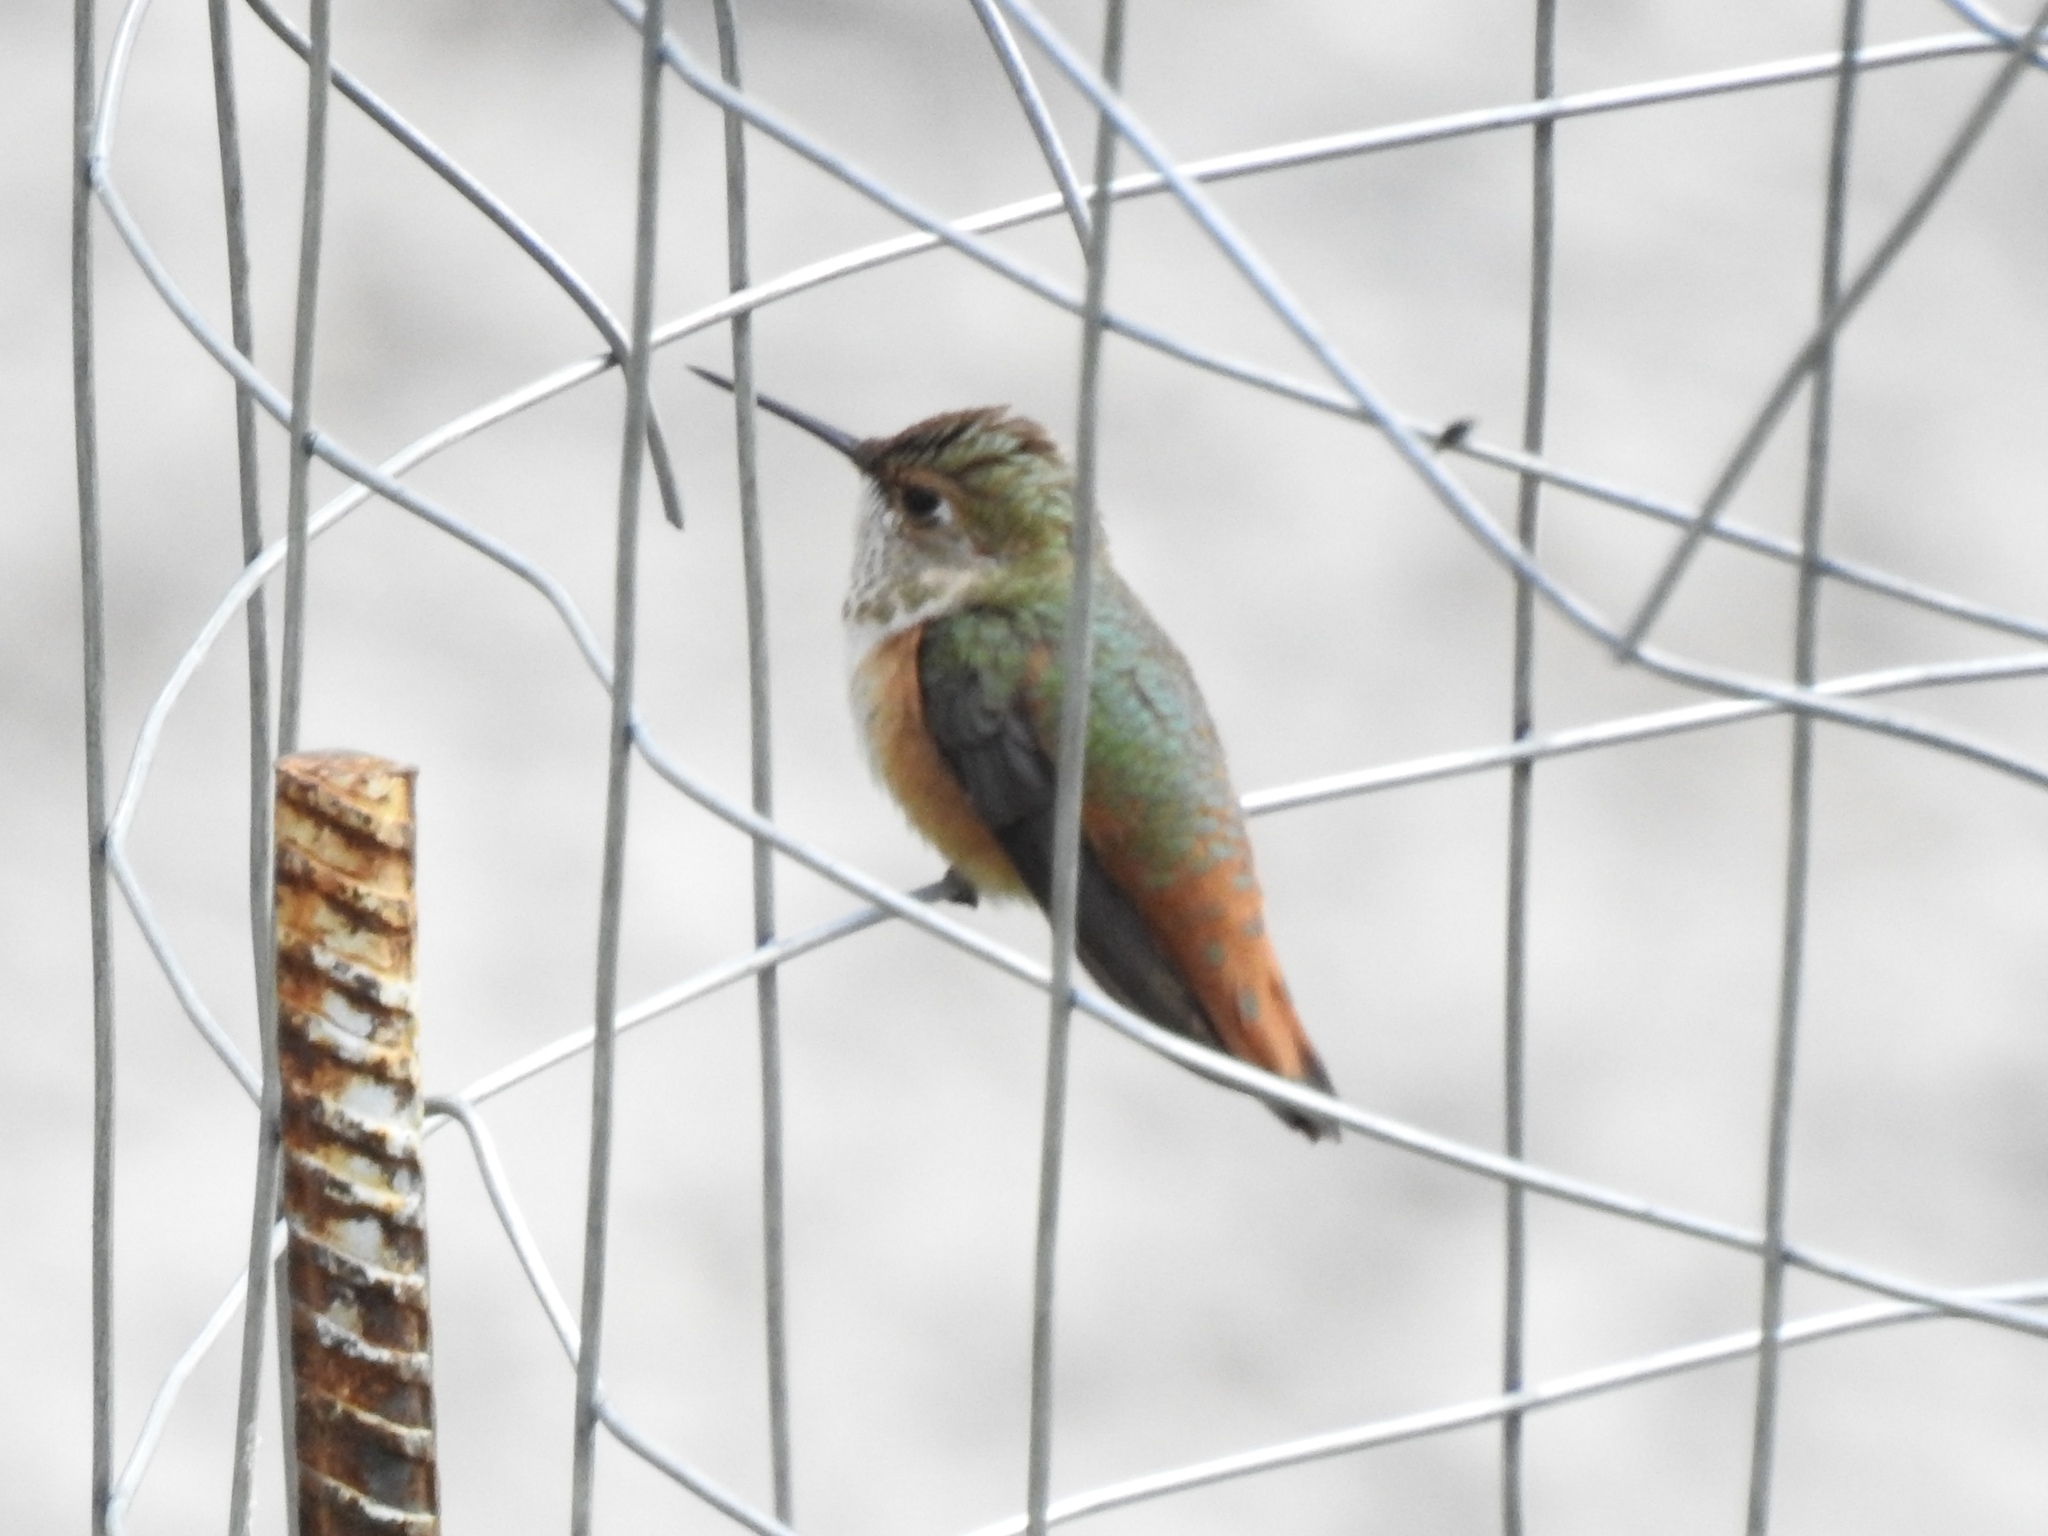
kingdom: Animalia
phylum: Chordata
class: Aves
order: Apodiformes
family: Trochilidae
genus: Selasphorus
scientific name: Selasphorus rufus
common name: Rufous hummingbird
